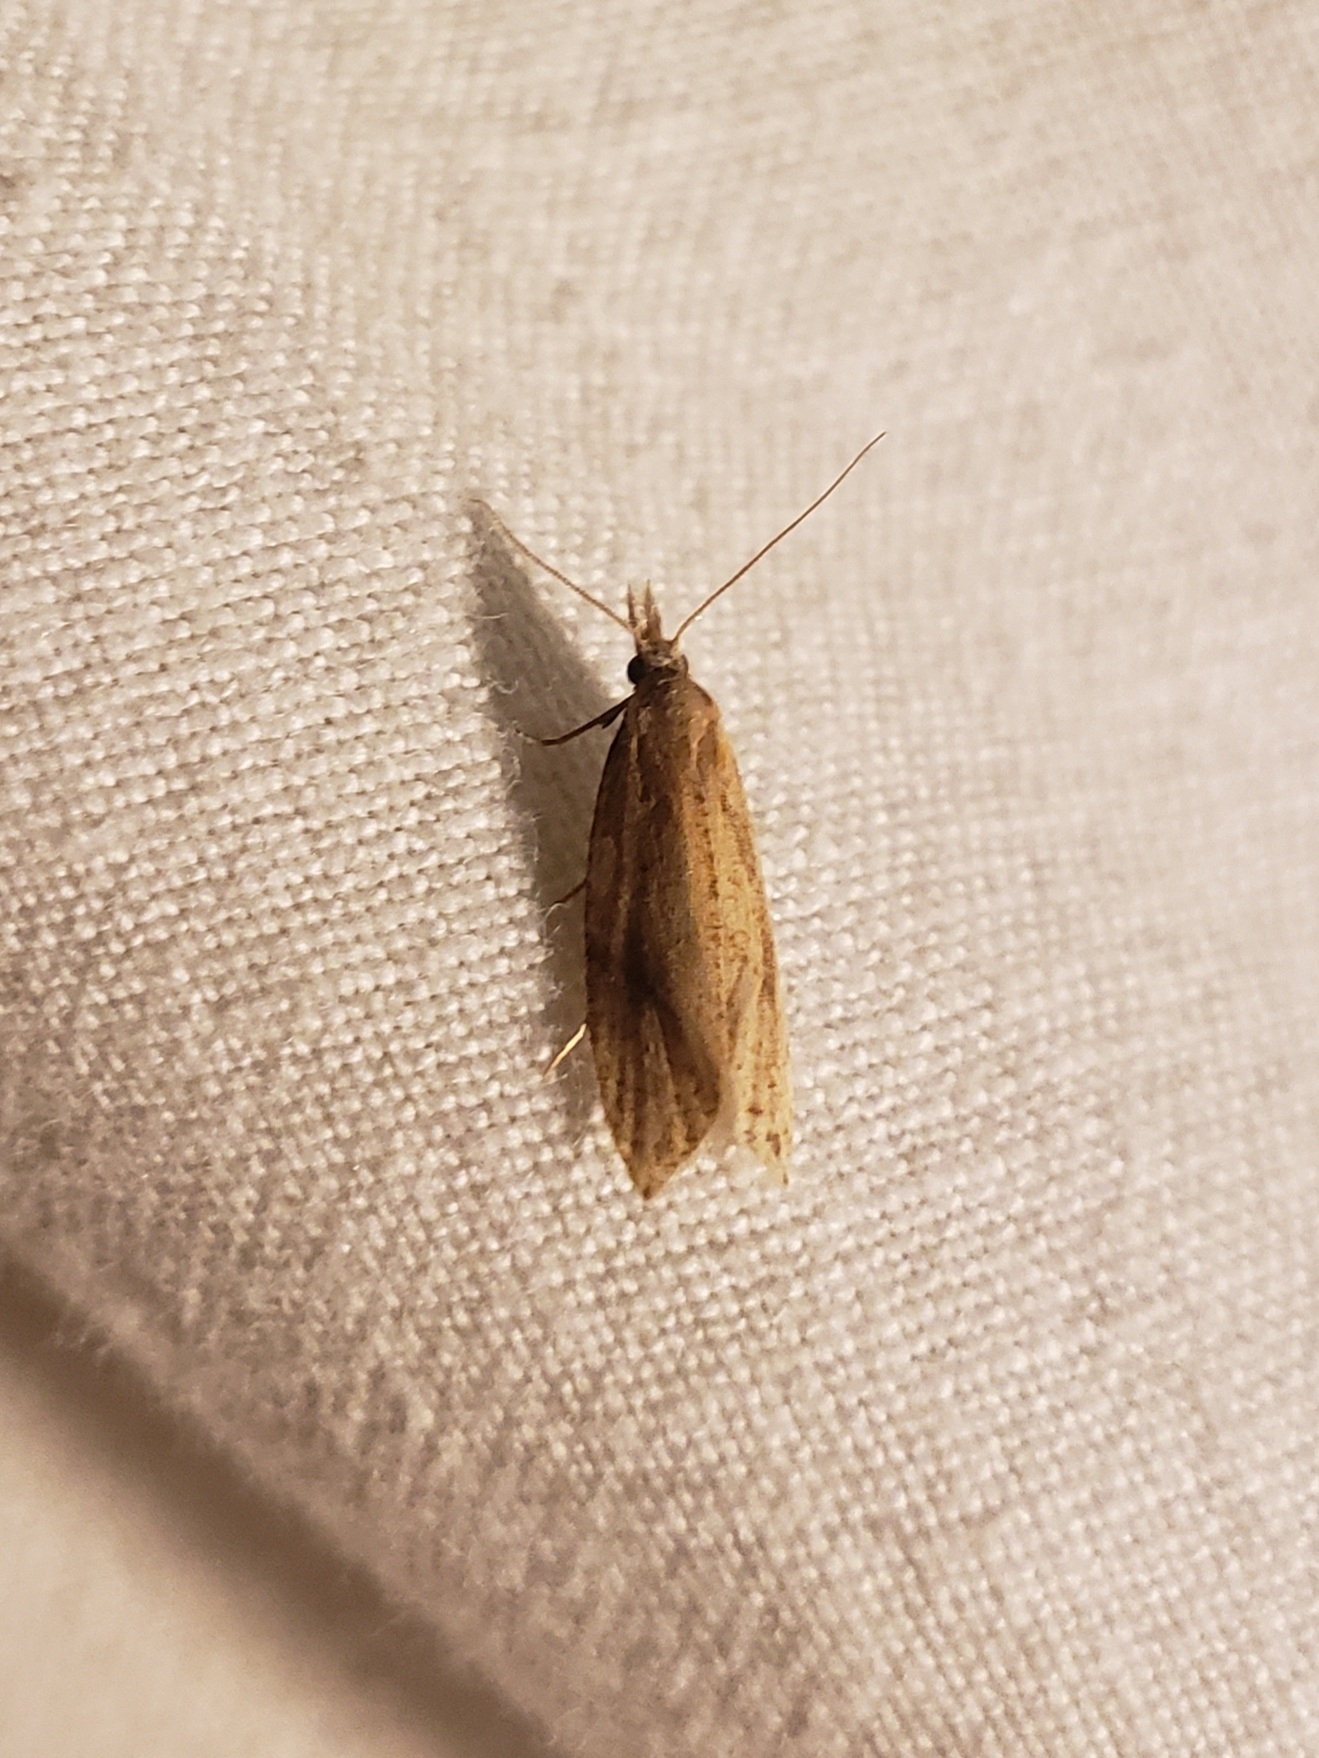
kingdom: Animalia
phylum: Arthropoda
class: Insecta
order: Lepidoptera
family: Tortricidae
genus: Aethes
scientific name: Aethes biscana
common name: Reddish aethes
